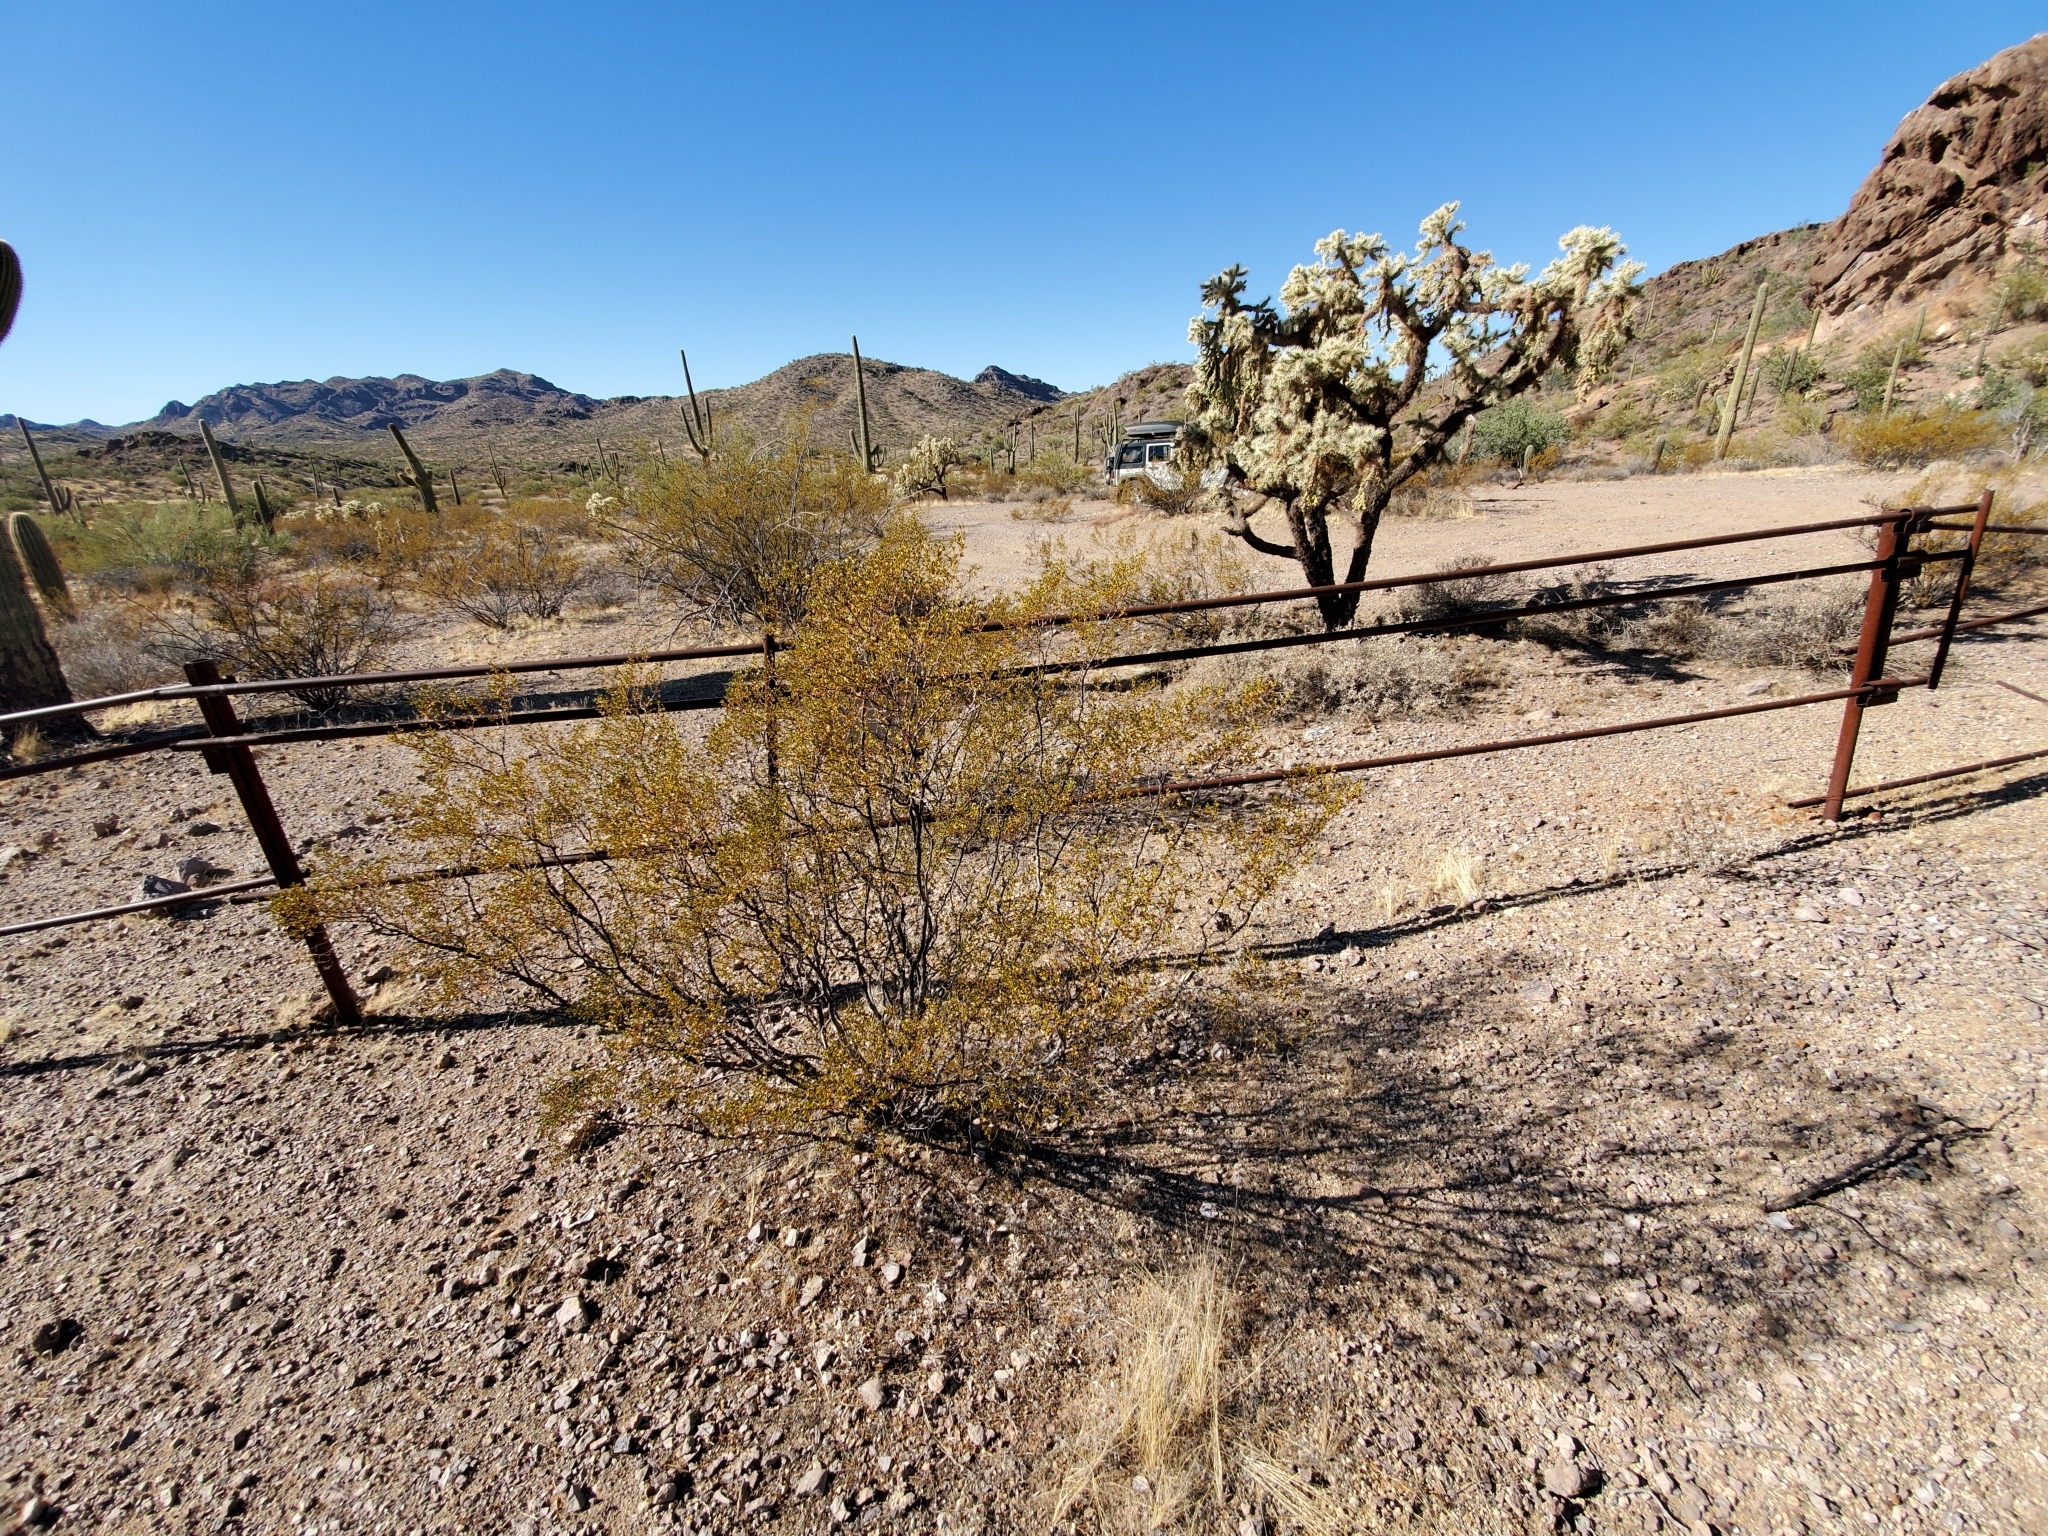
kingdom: Plantae
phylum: Tracheophyta
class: Magnoliopsida
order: Zygophyllales
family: Zygophyllaceae
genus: Larrea
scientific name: Larrea tridentata
